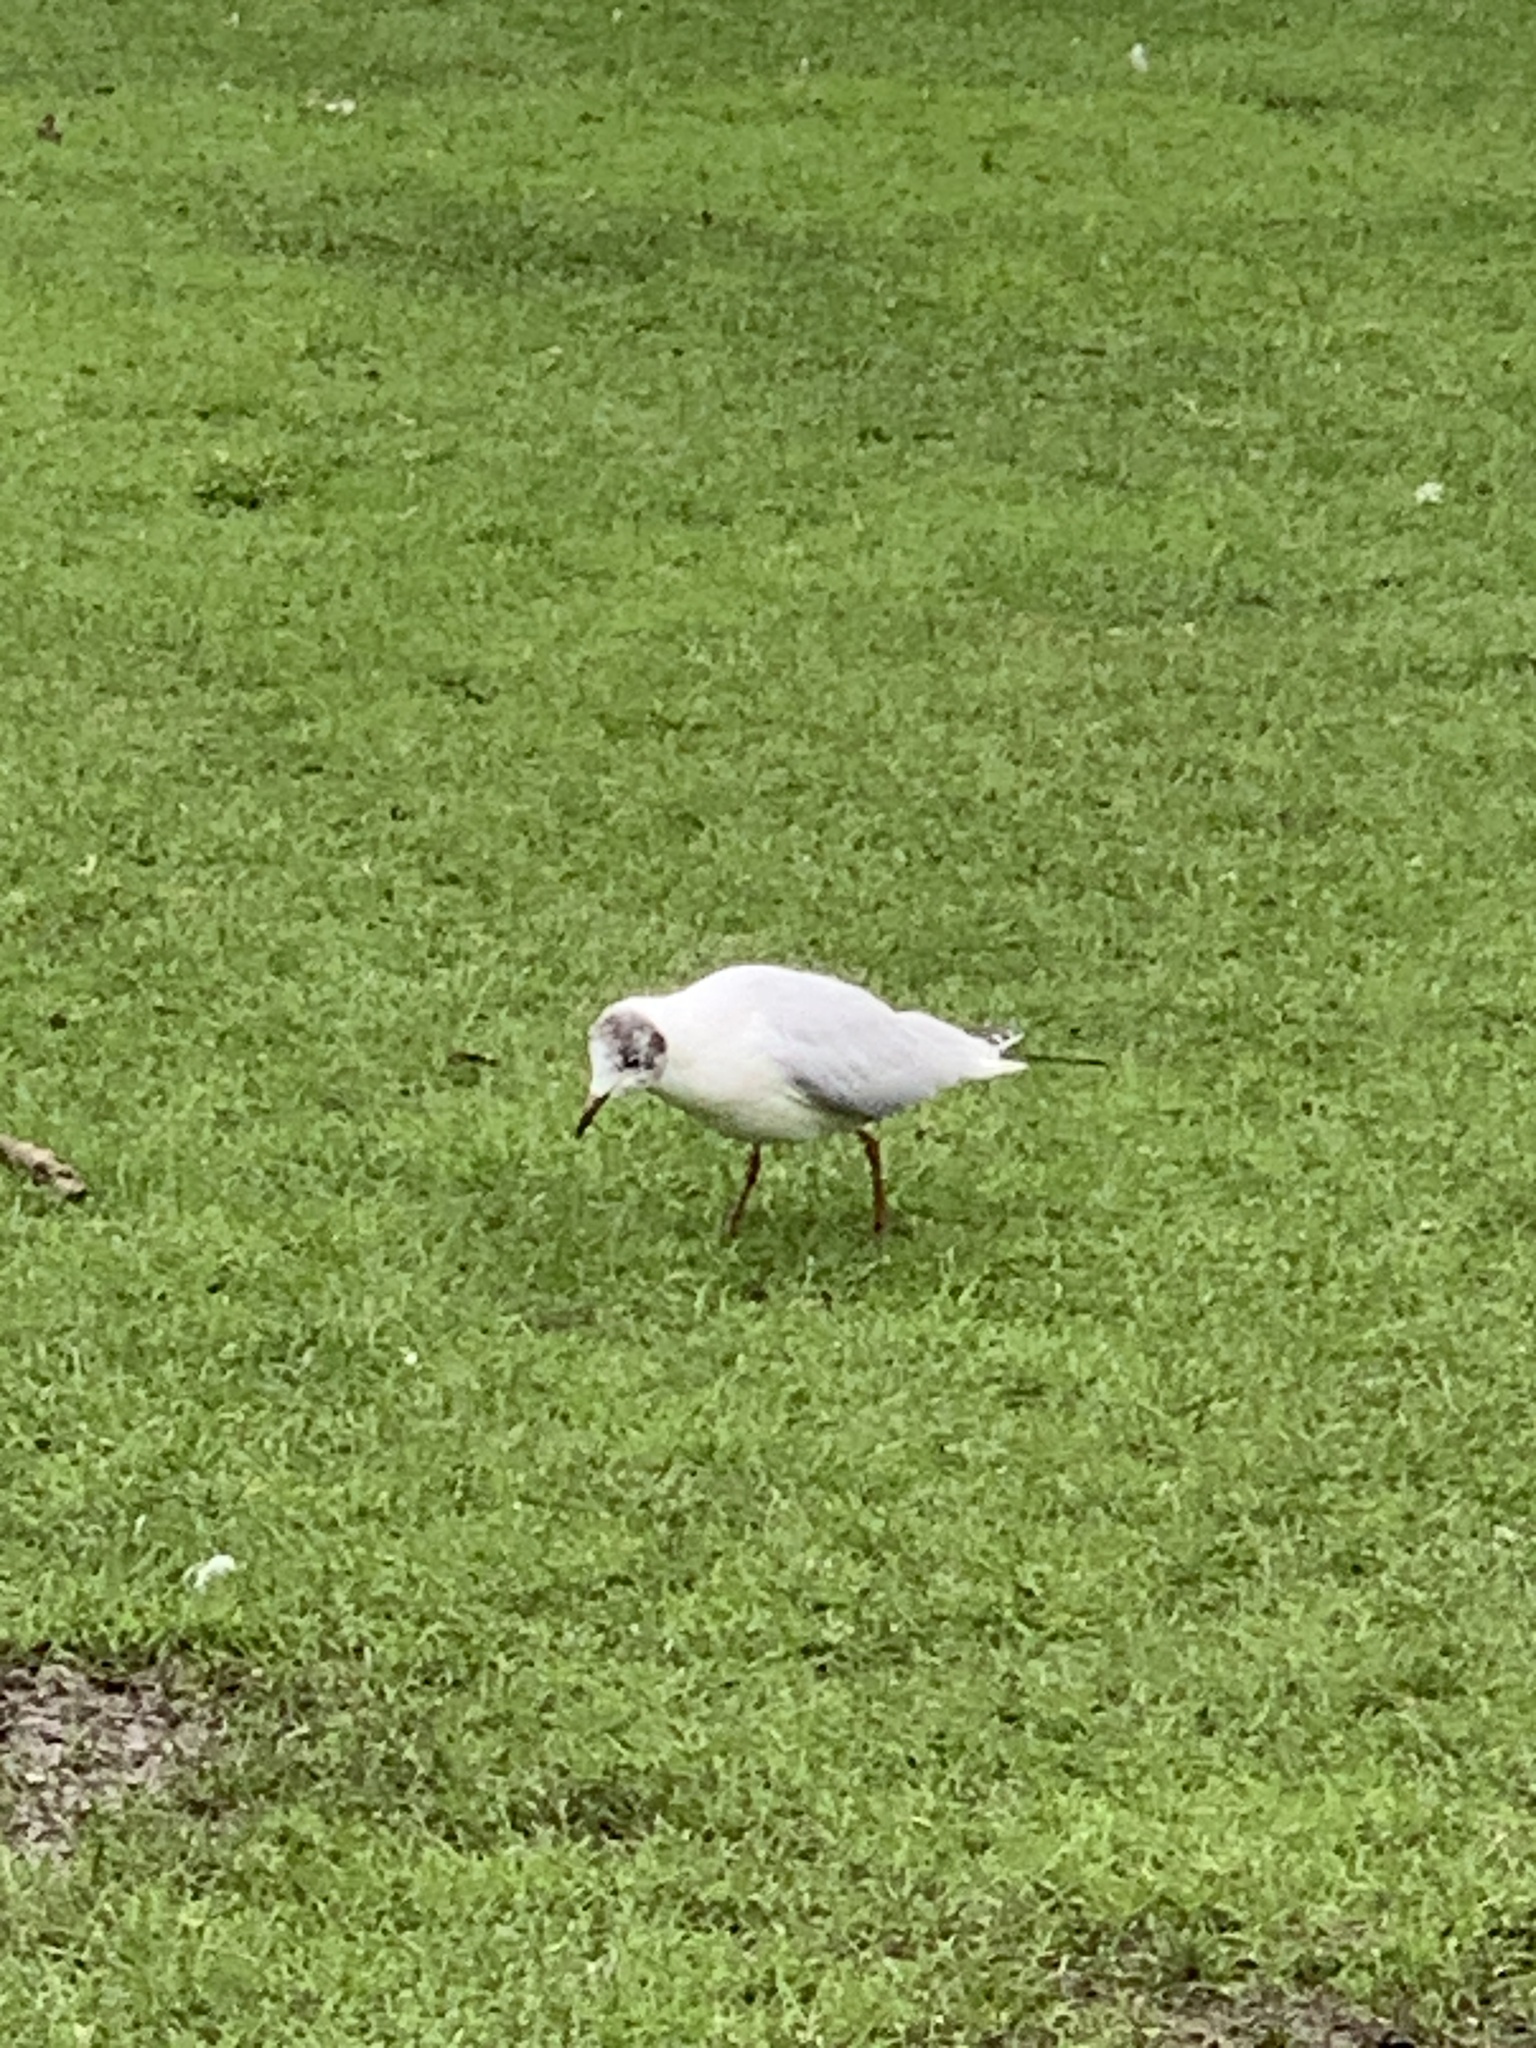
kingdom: Animalia
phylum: Chordata
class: Aves
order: Charadriiformes
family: Laridae
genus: Chroicocephalus
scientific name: Chroicocephalus ridibundus
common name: Black-headed gull
